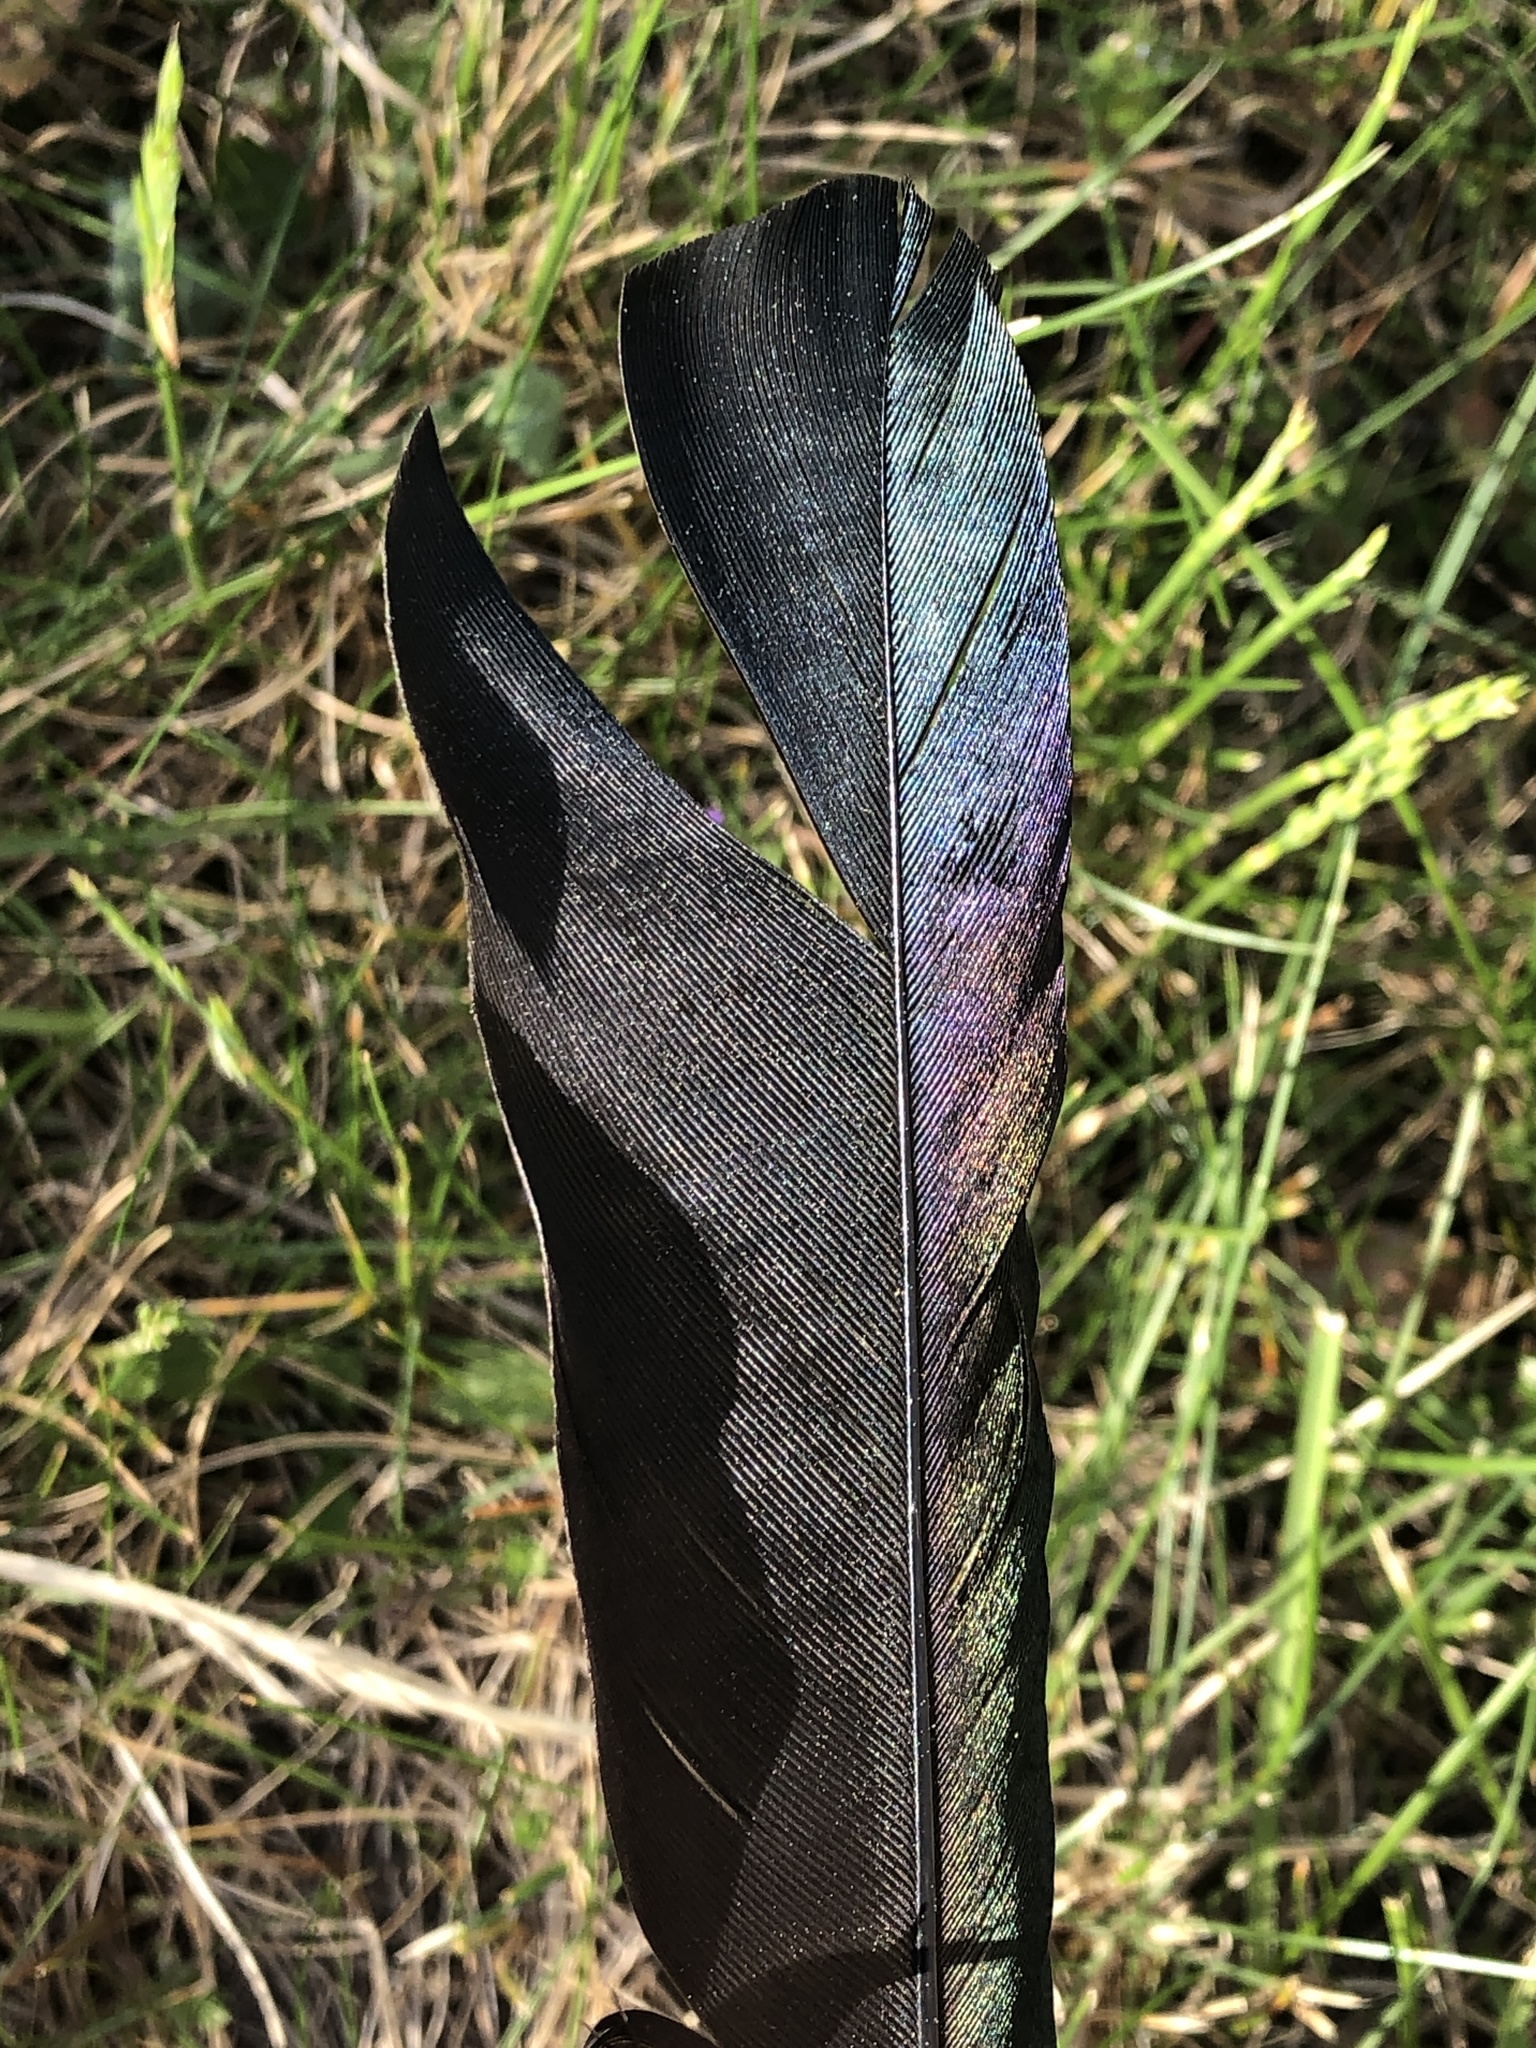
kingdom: Animalia
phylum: Chordata
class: Aves
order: Passeriformes
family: Corvidae
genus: Pica
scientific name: Pica pica
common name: Eurasian magpie
